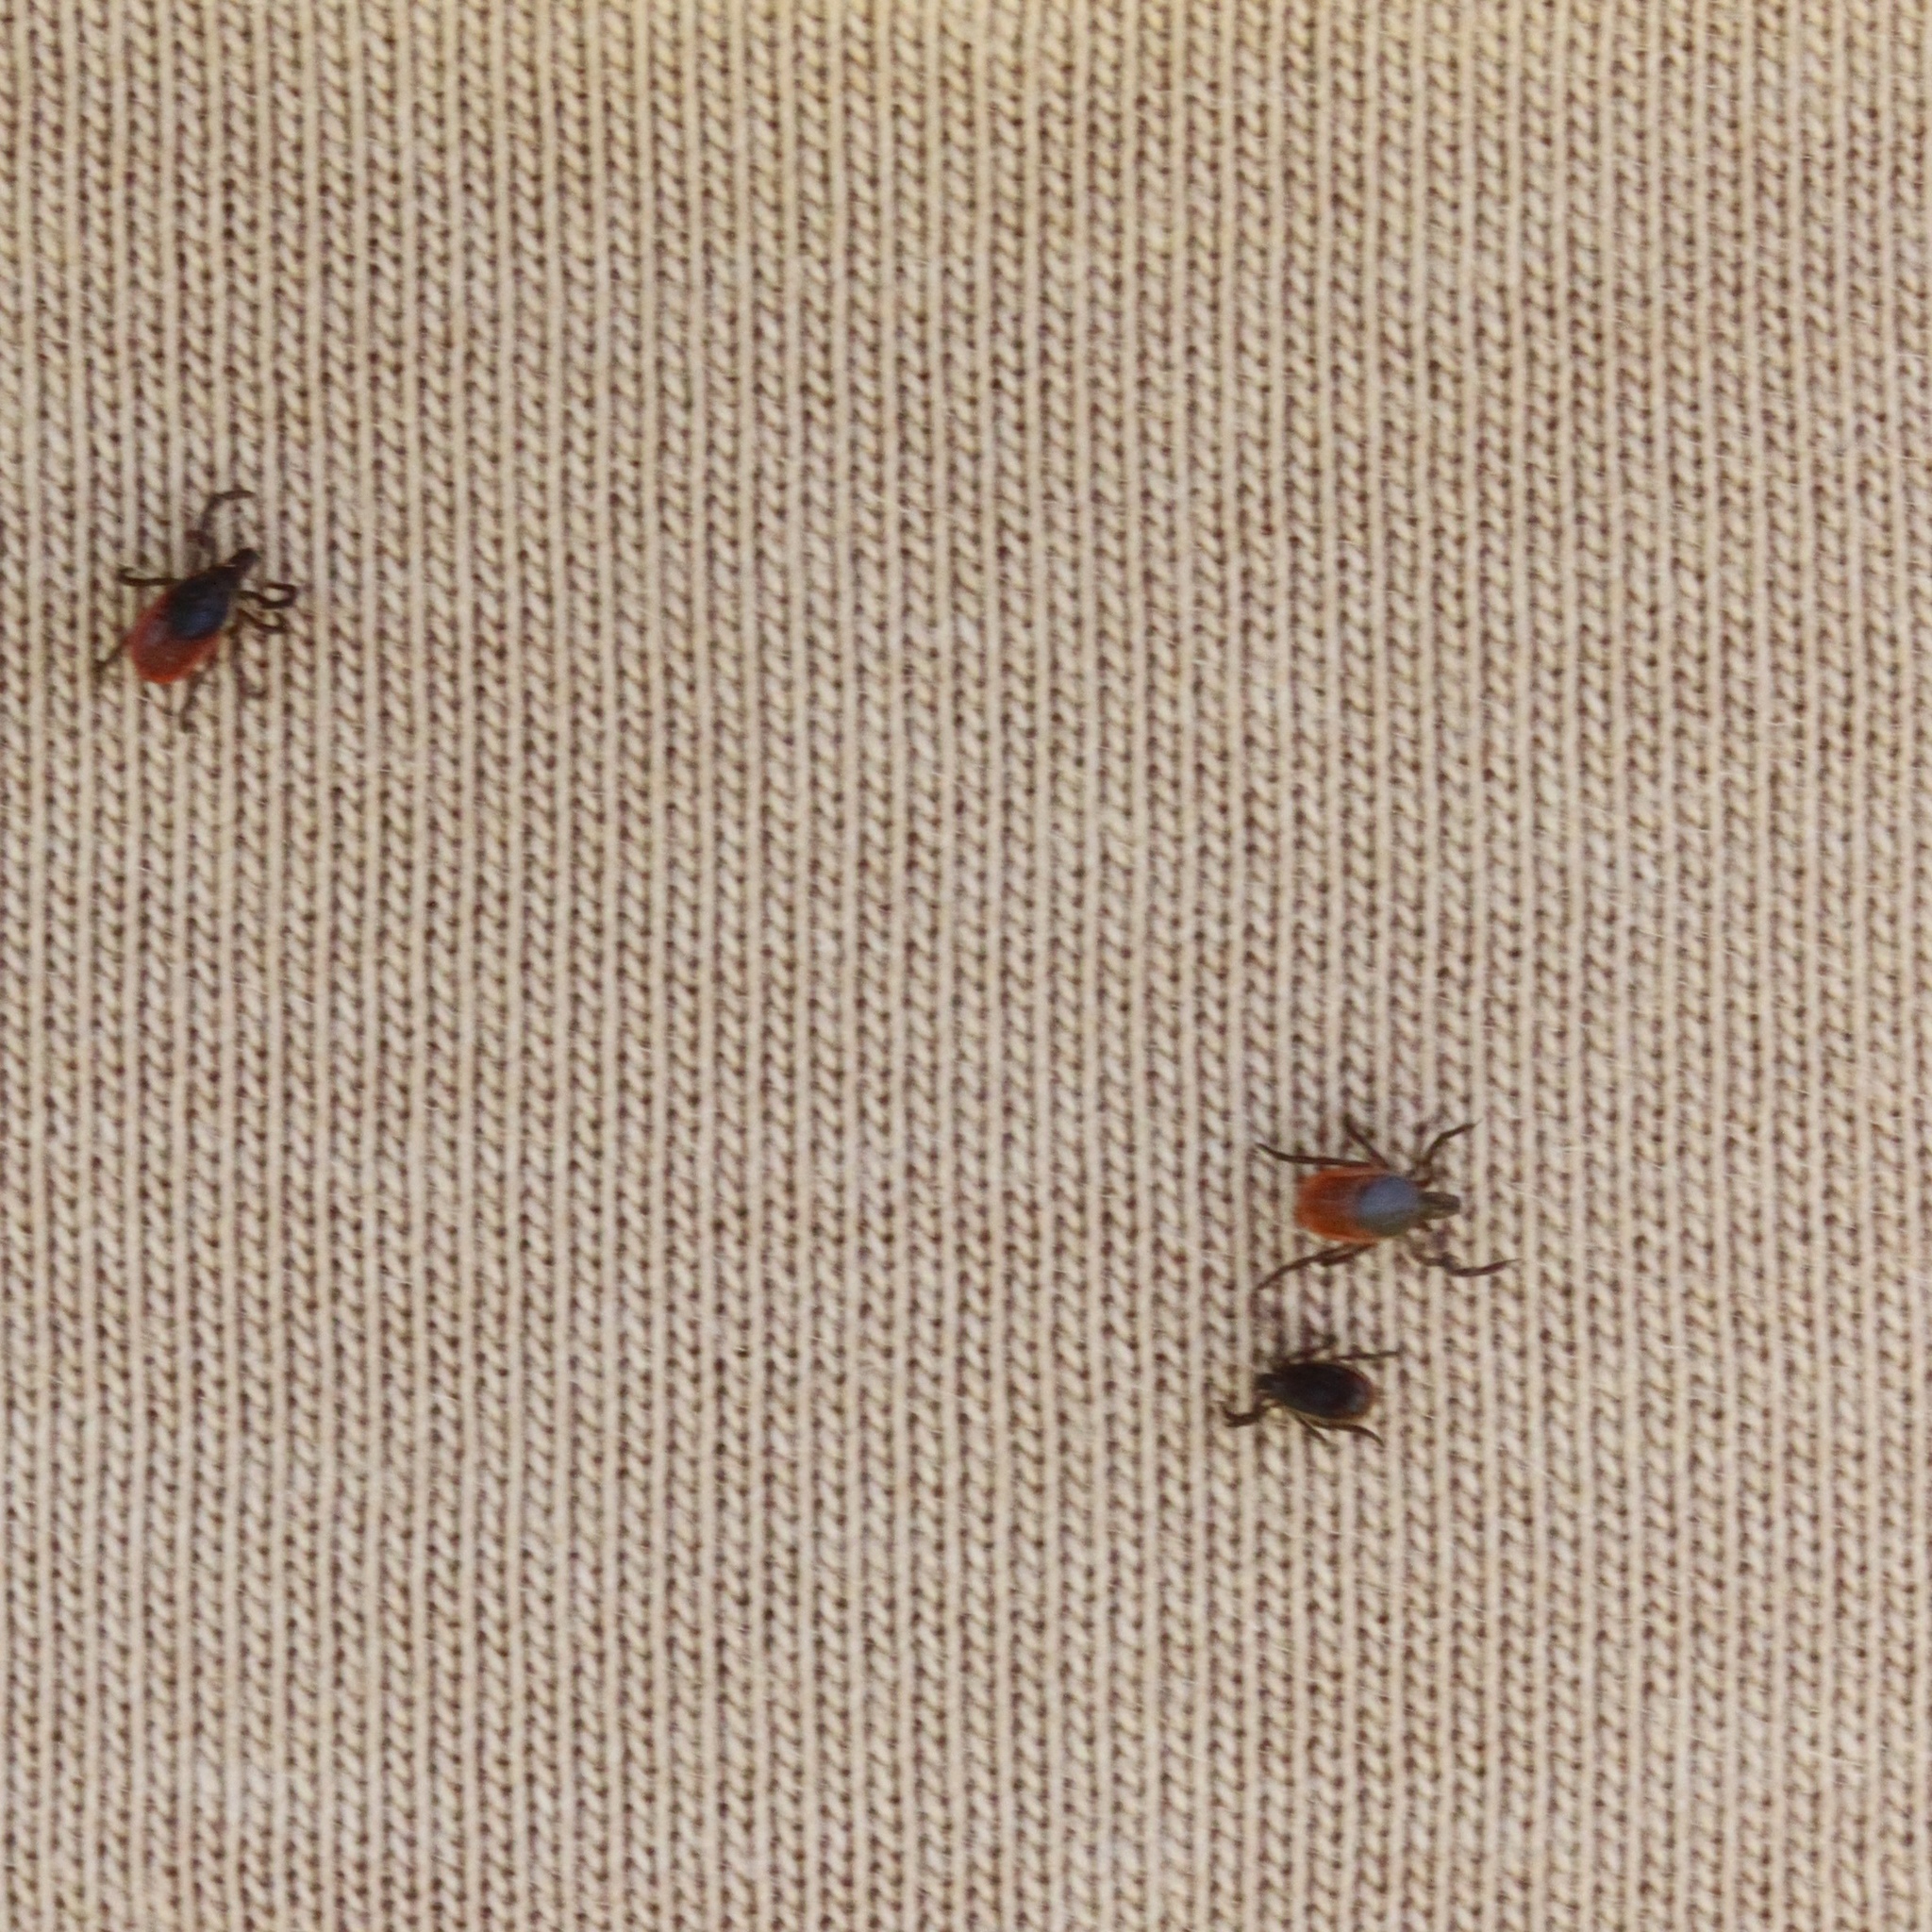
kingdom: Animalia
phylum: Arthropoda
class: Arachnida
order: Ixodida
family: Ixodidae
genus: Ixodes
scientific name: Ixodes scapularis
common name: Black legged tick
